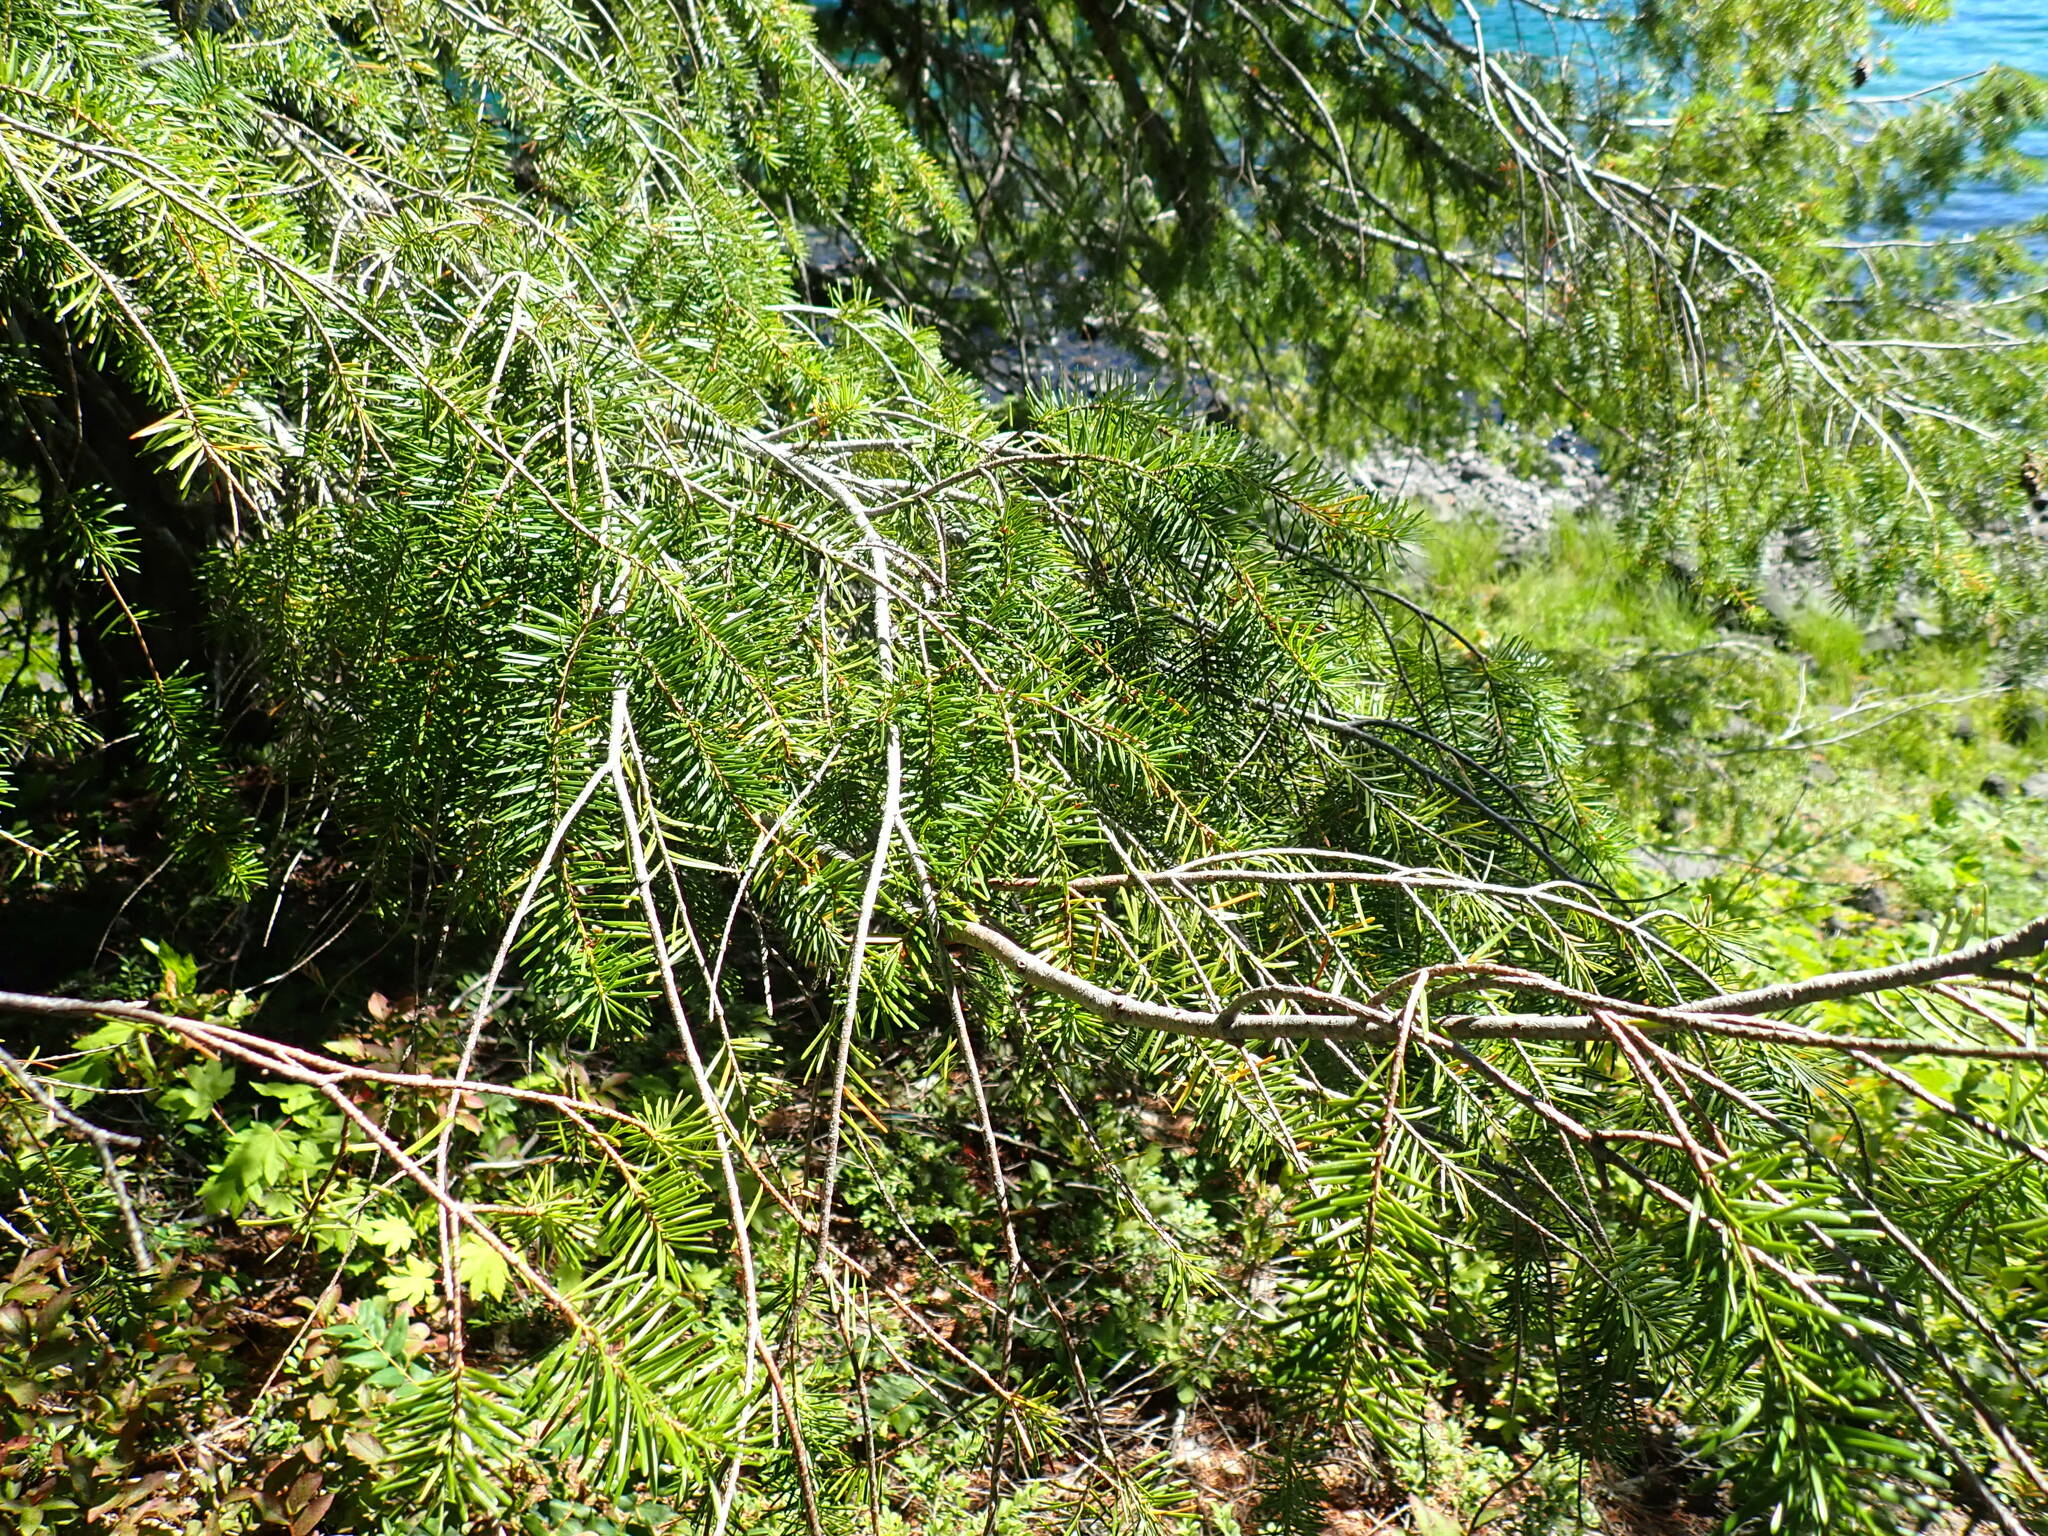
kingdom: Plantae
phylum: Tracheophyta
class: Pinopsida
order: Pinales
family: Pinaceae
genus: Pseudotsuga
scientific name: Pseudotsuga menziesii
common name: Douglas fir
